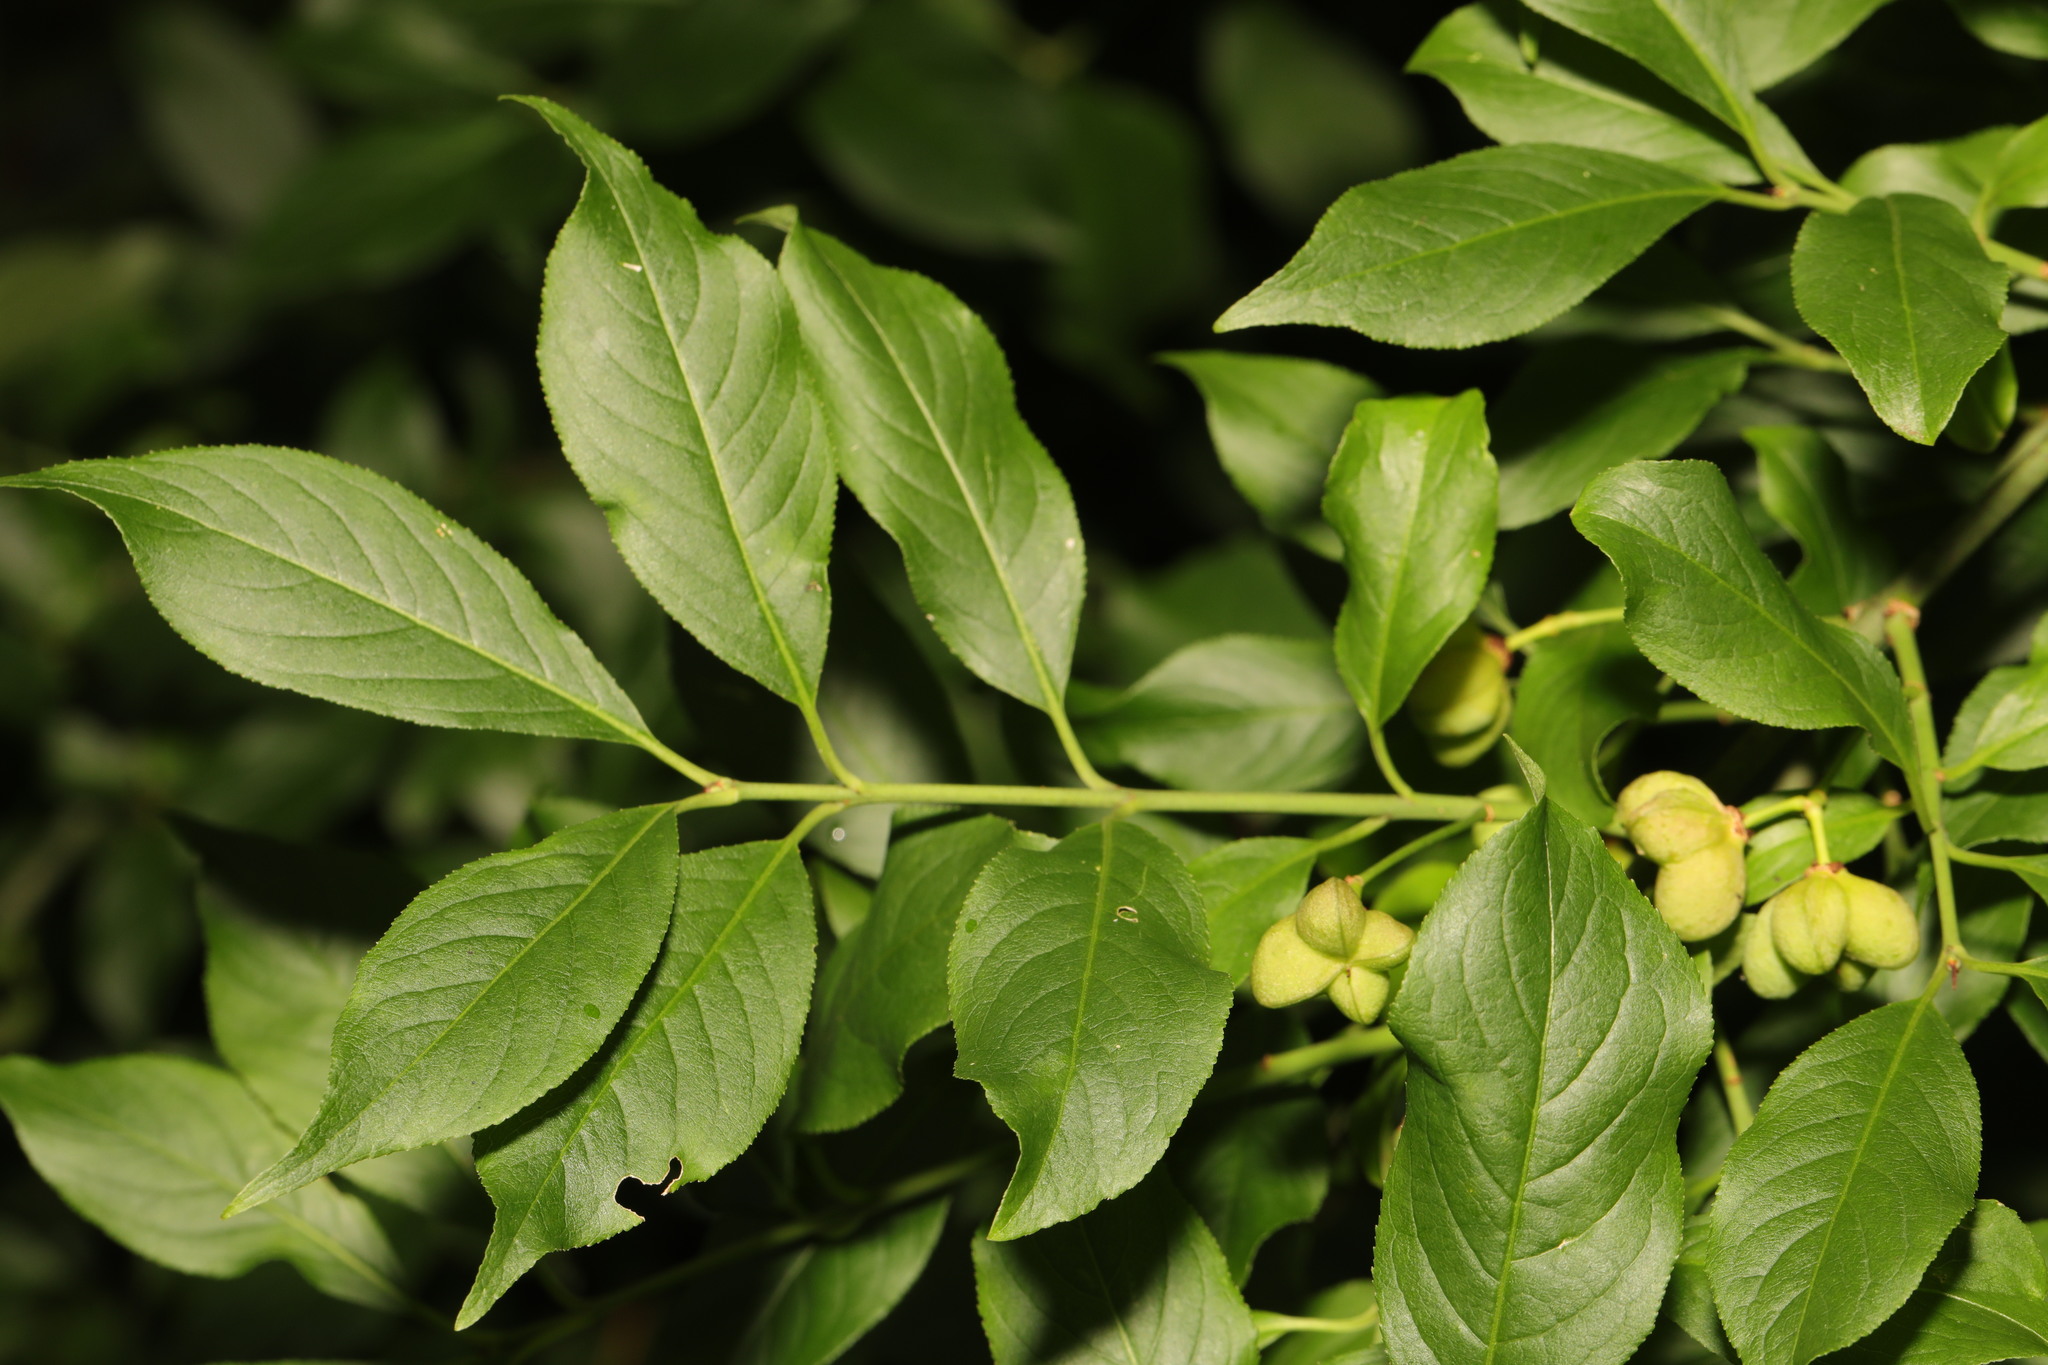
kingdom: Plantae
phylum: Tracheophyta
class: Magnoliopsida
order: Celastrales
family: Celastraceae
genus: Euonymus
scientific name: Euonymus europaeus
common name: Spindle
